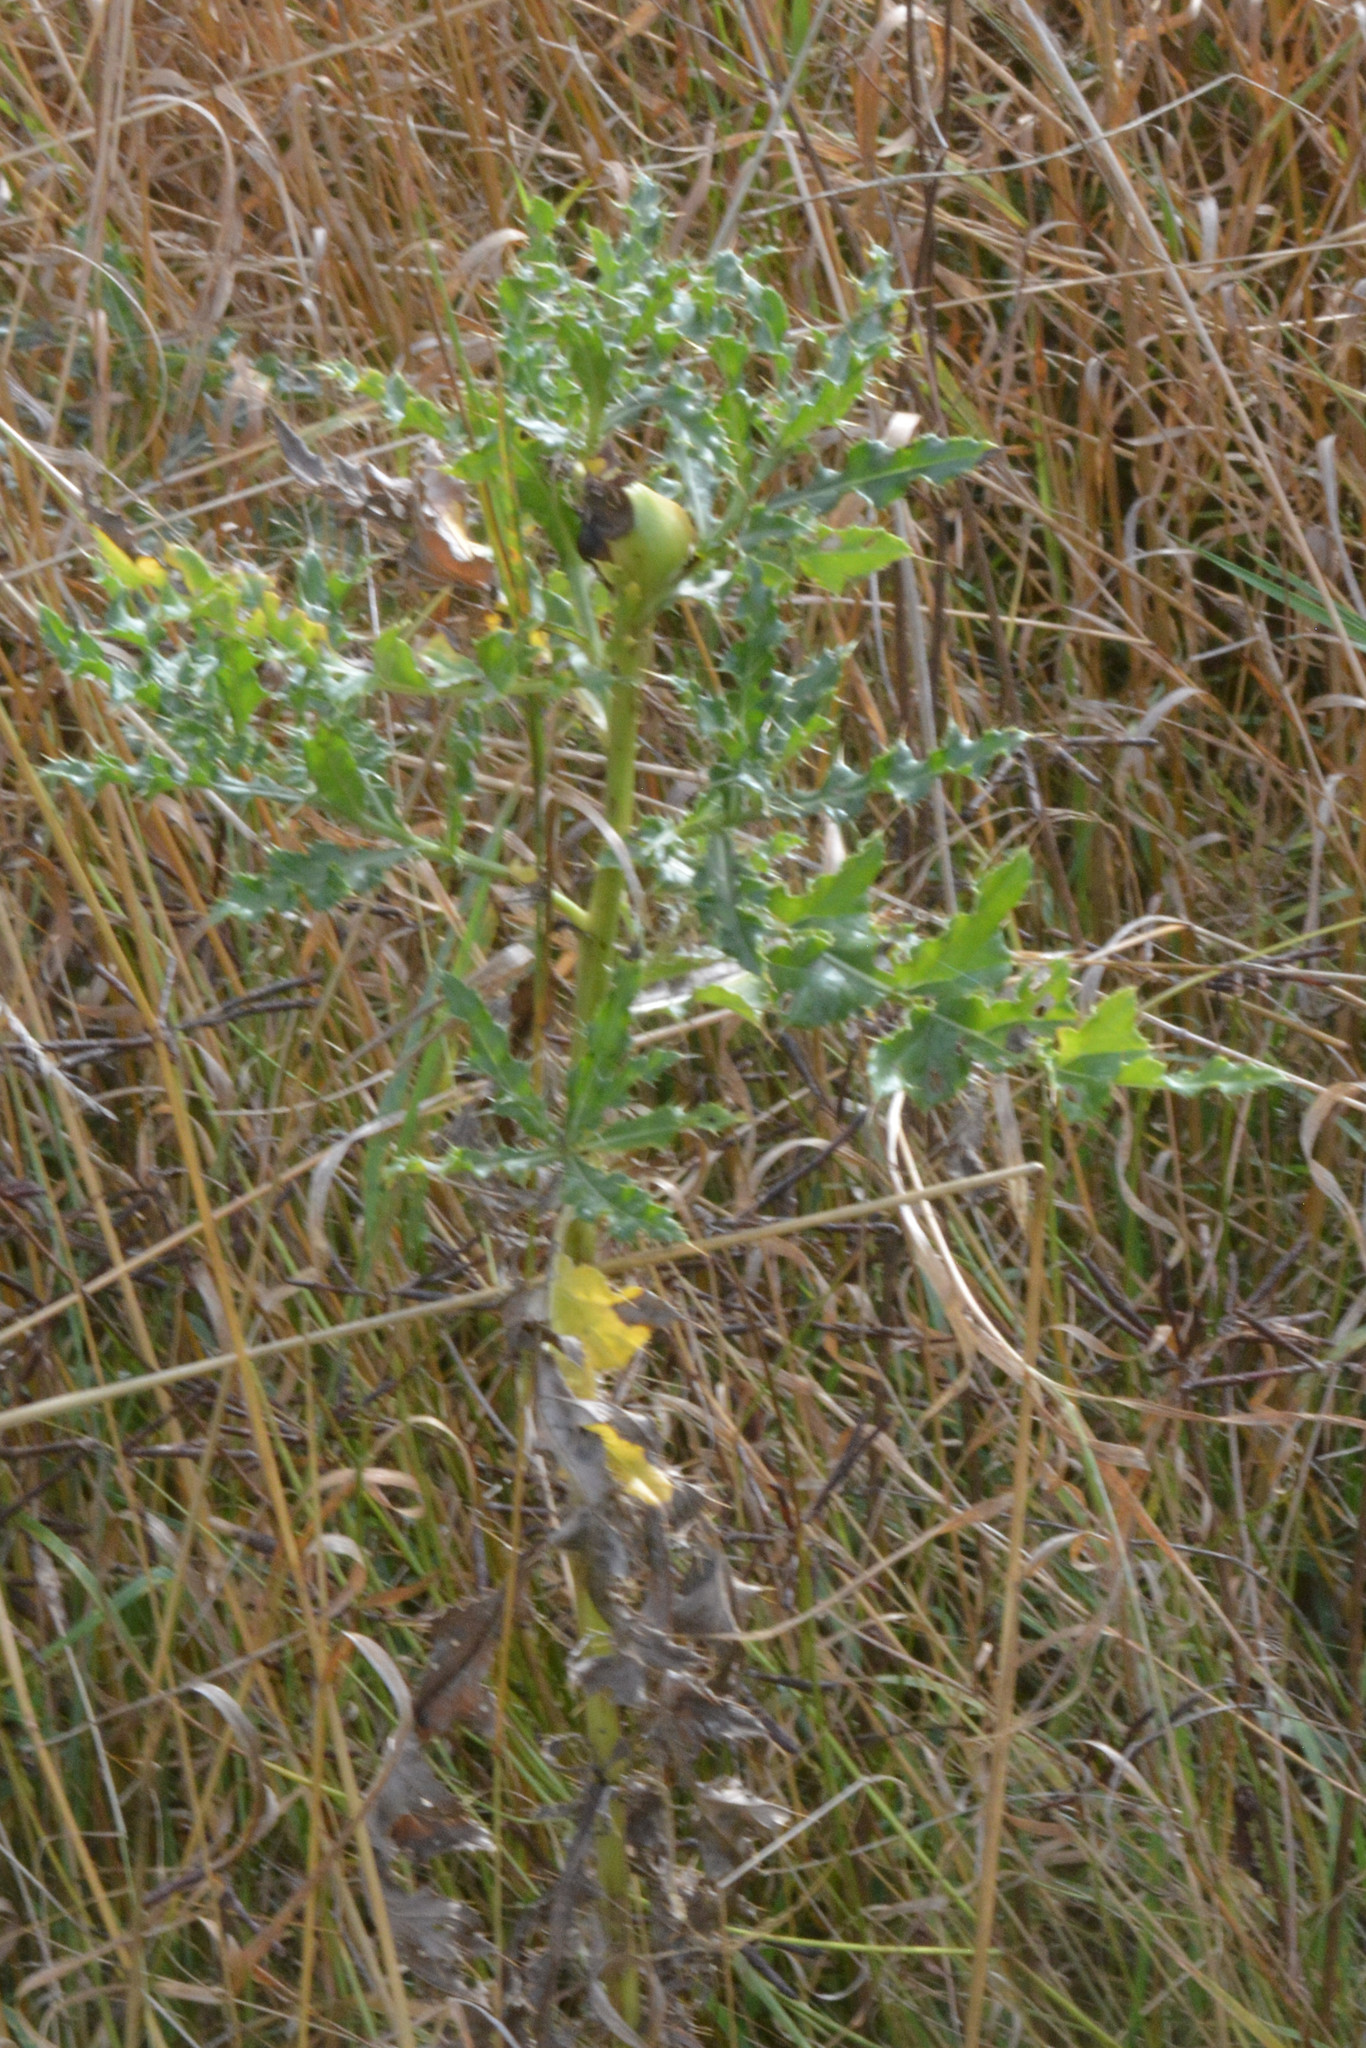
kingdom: Animalia
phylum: Arthropoda
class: Insecta
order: Diptera
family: Tephritidae
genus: Urophora
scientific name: Urophora cardui
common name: Fruit fly
